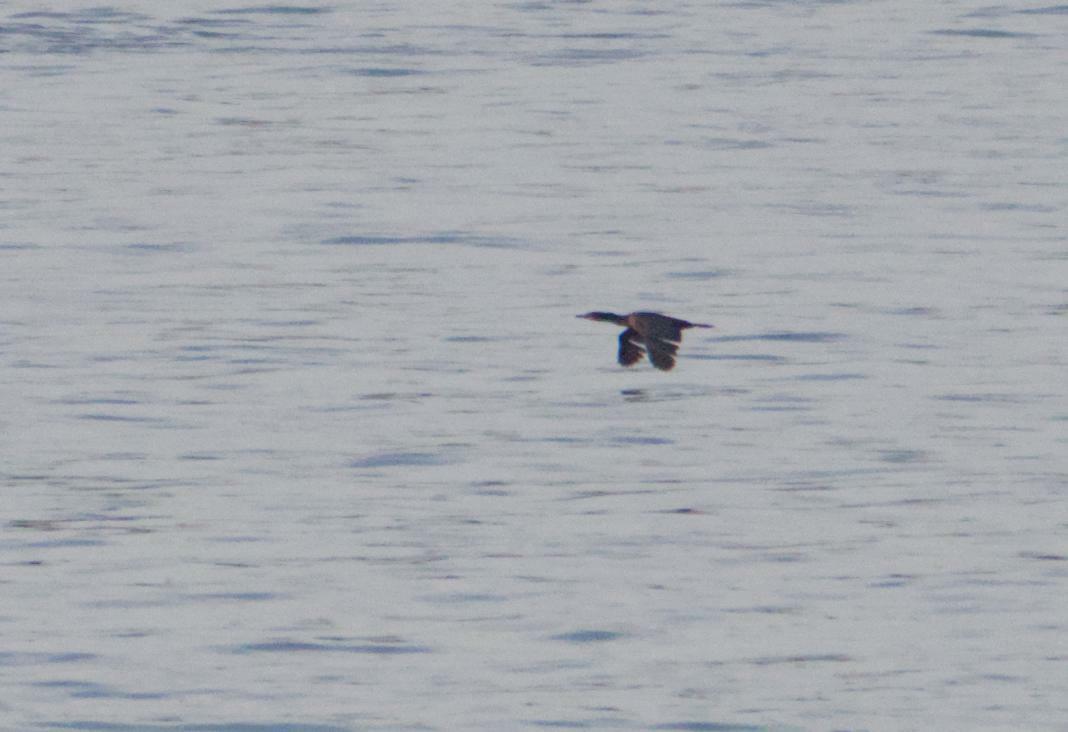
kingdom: Animalia
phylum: Chordata
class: Aves
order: Suliformes
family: Phalacrocoracidae
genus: Phalacrocorax
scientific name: Phalacrocorax auritus
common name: Double-crested cormorant
